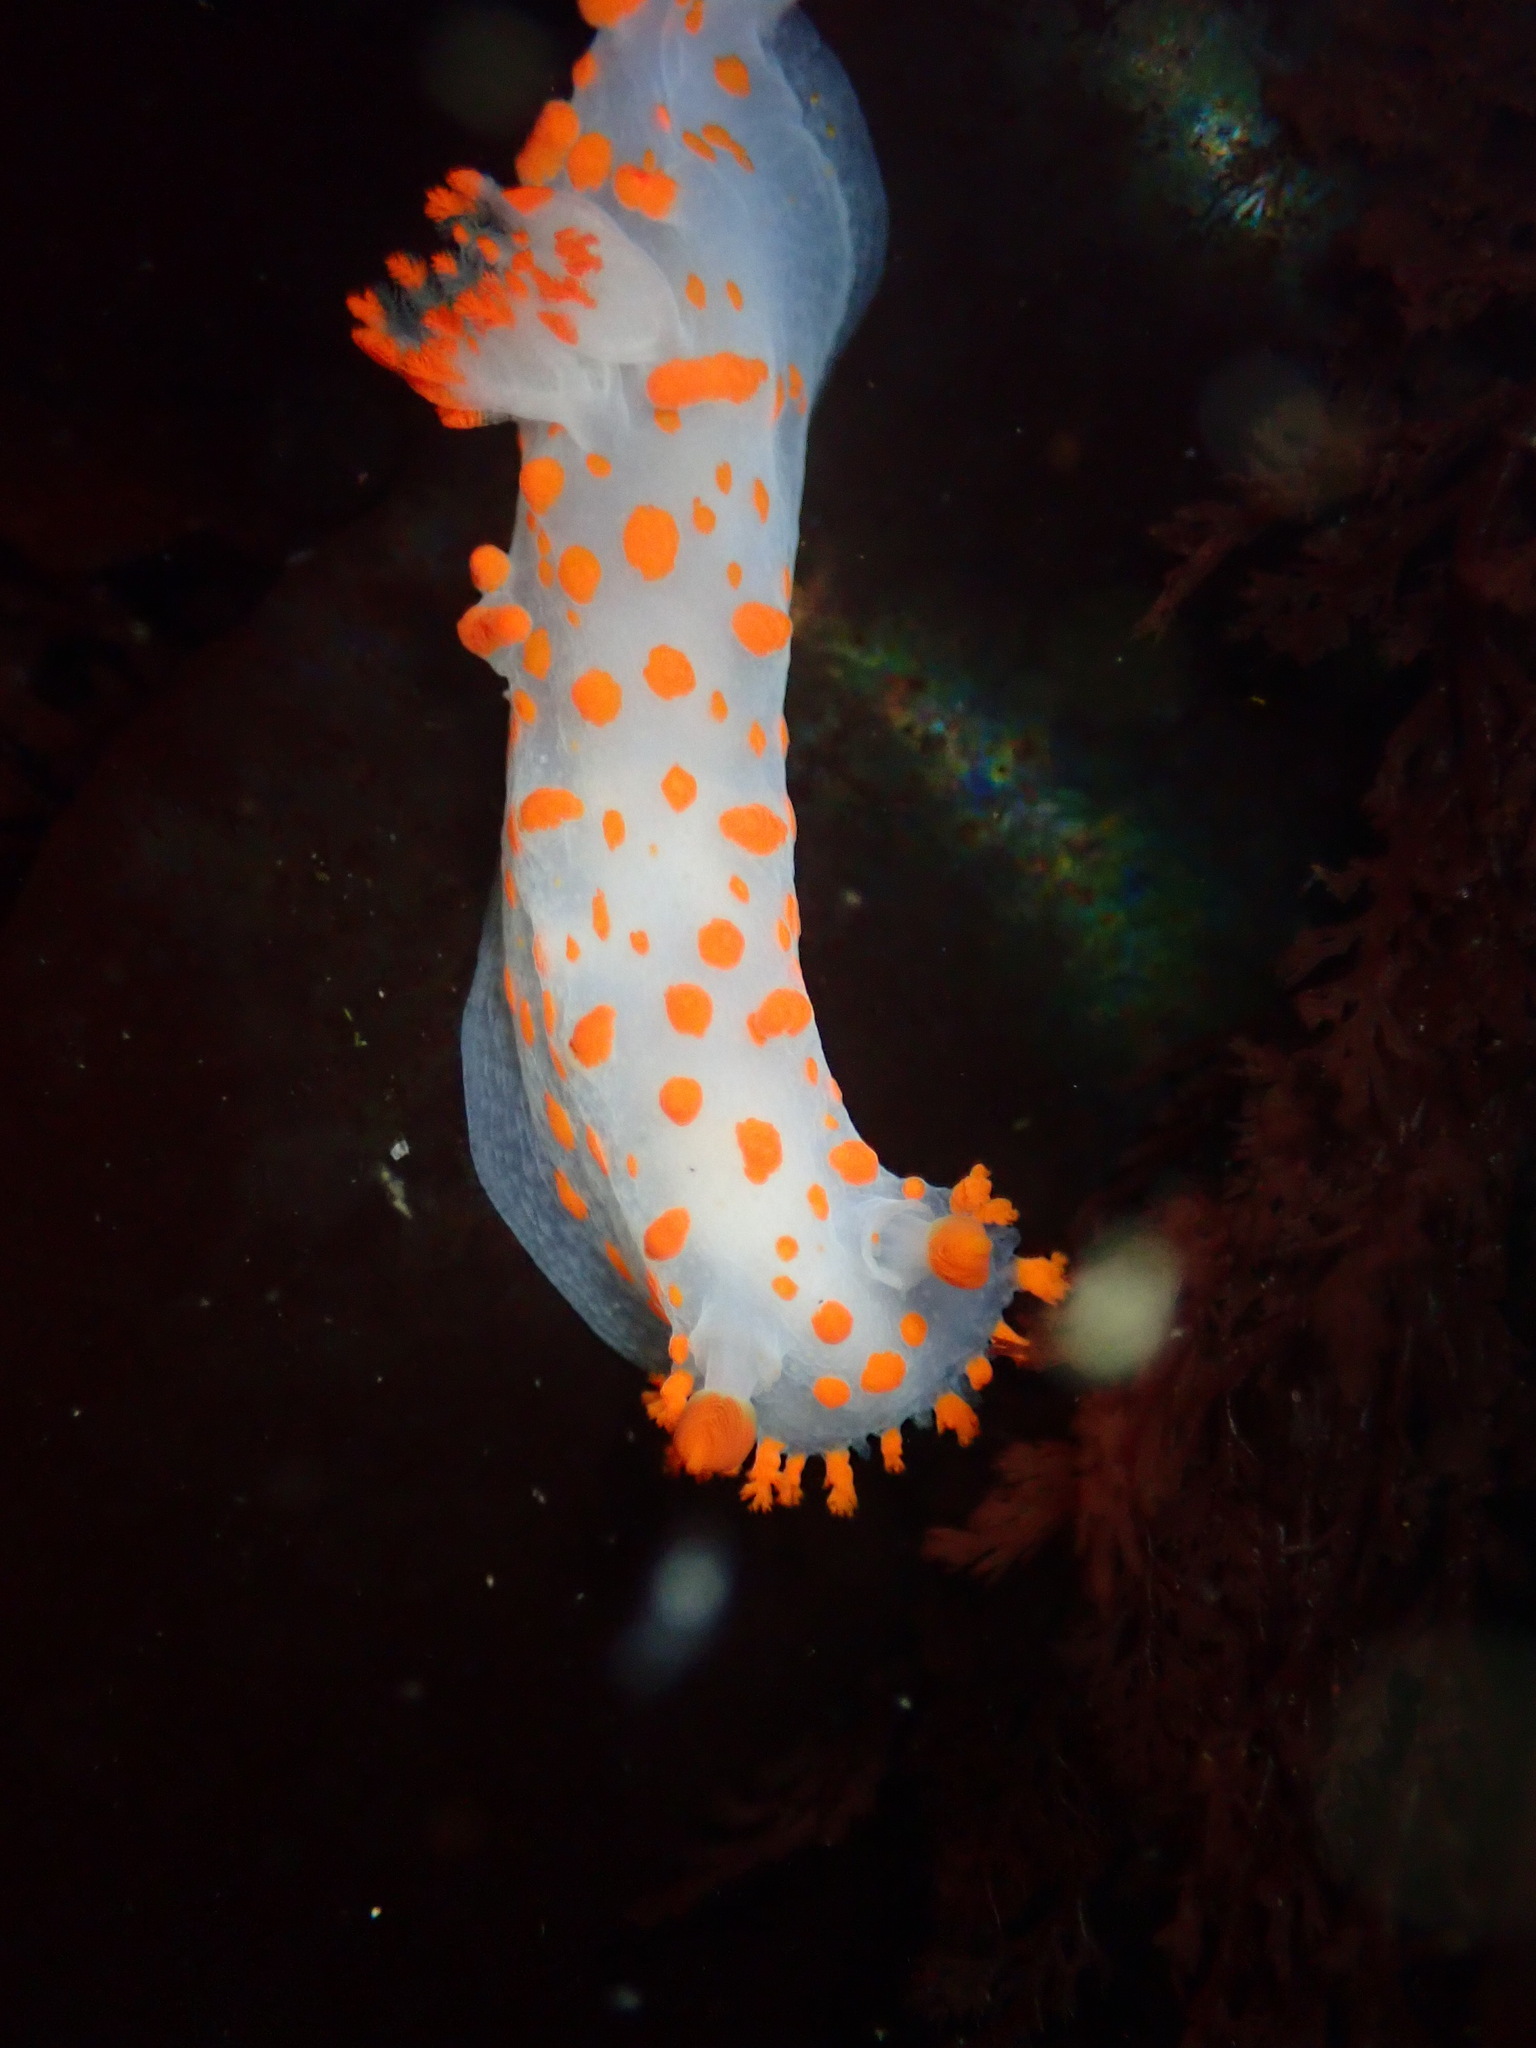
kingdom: Animalia
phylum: Mollusca
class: Gastropoda
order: Nudibranchia
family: Polyceridae
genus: Triopha
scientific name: Triopha catalinae
